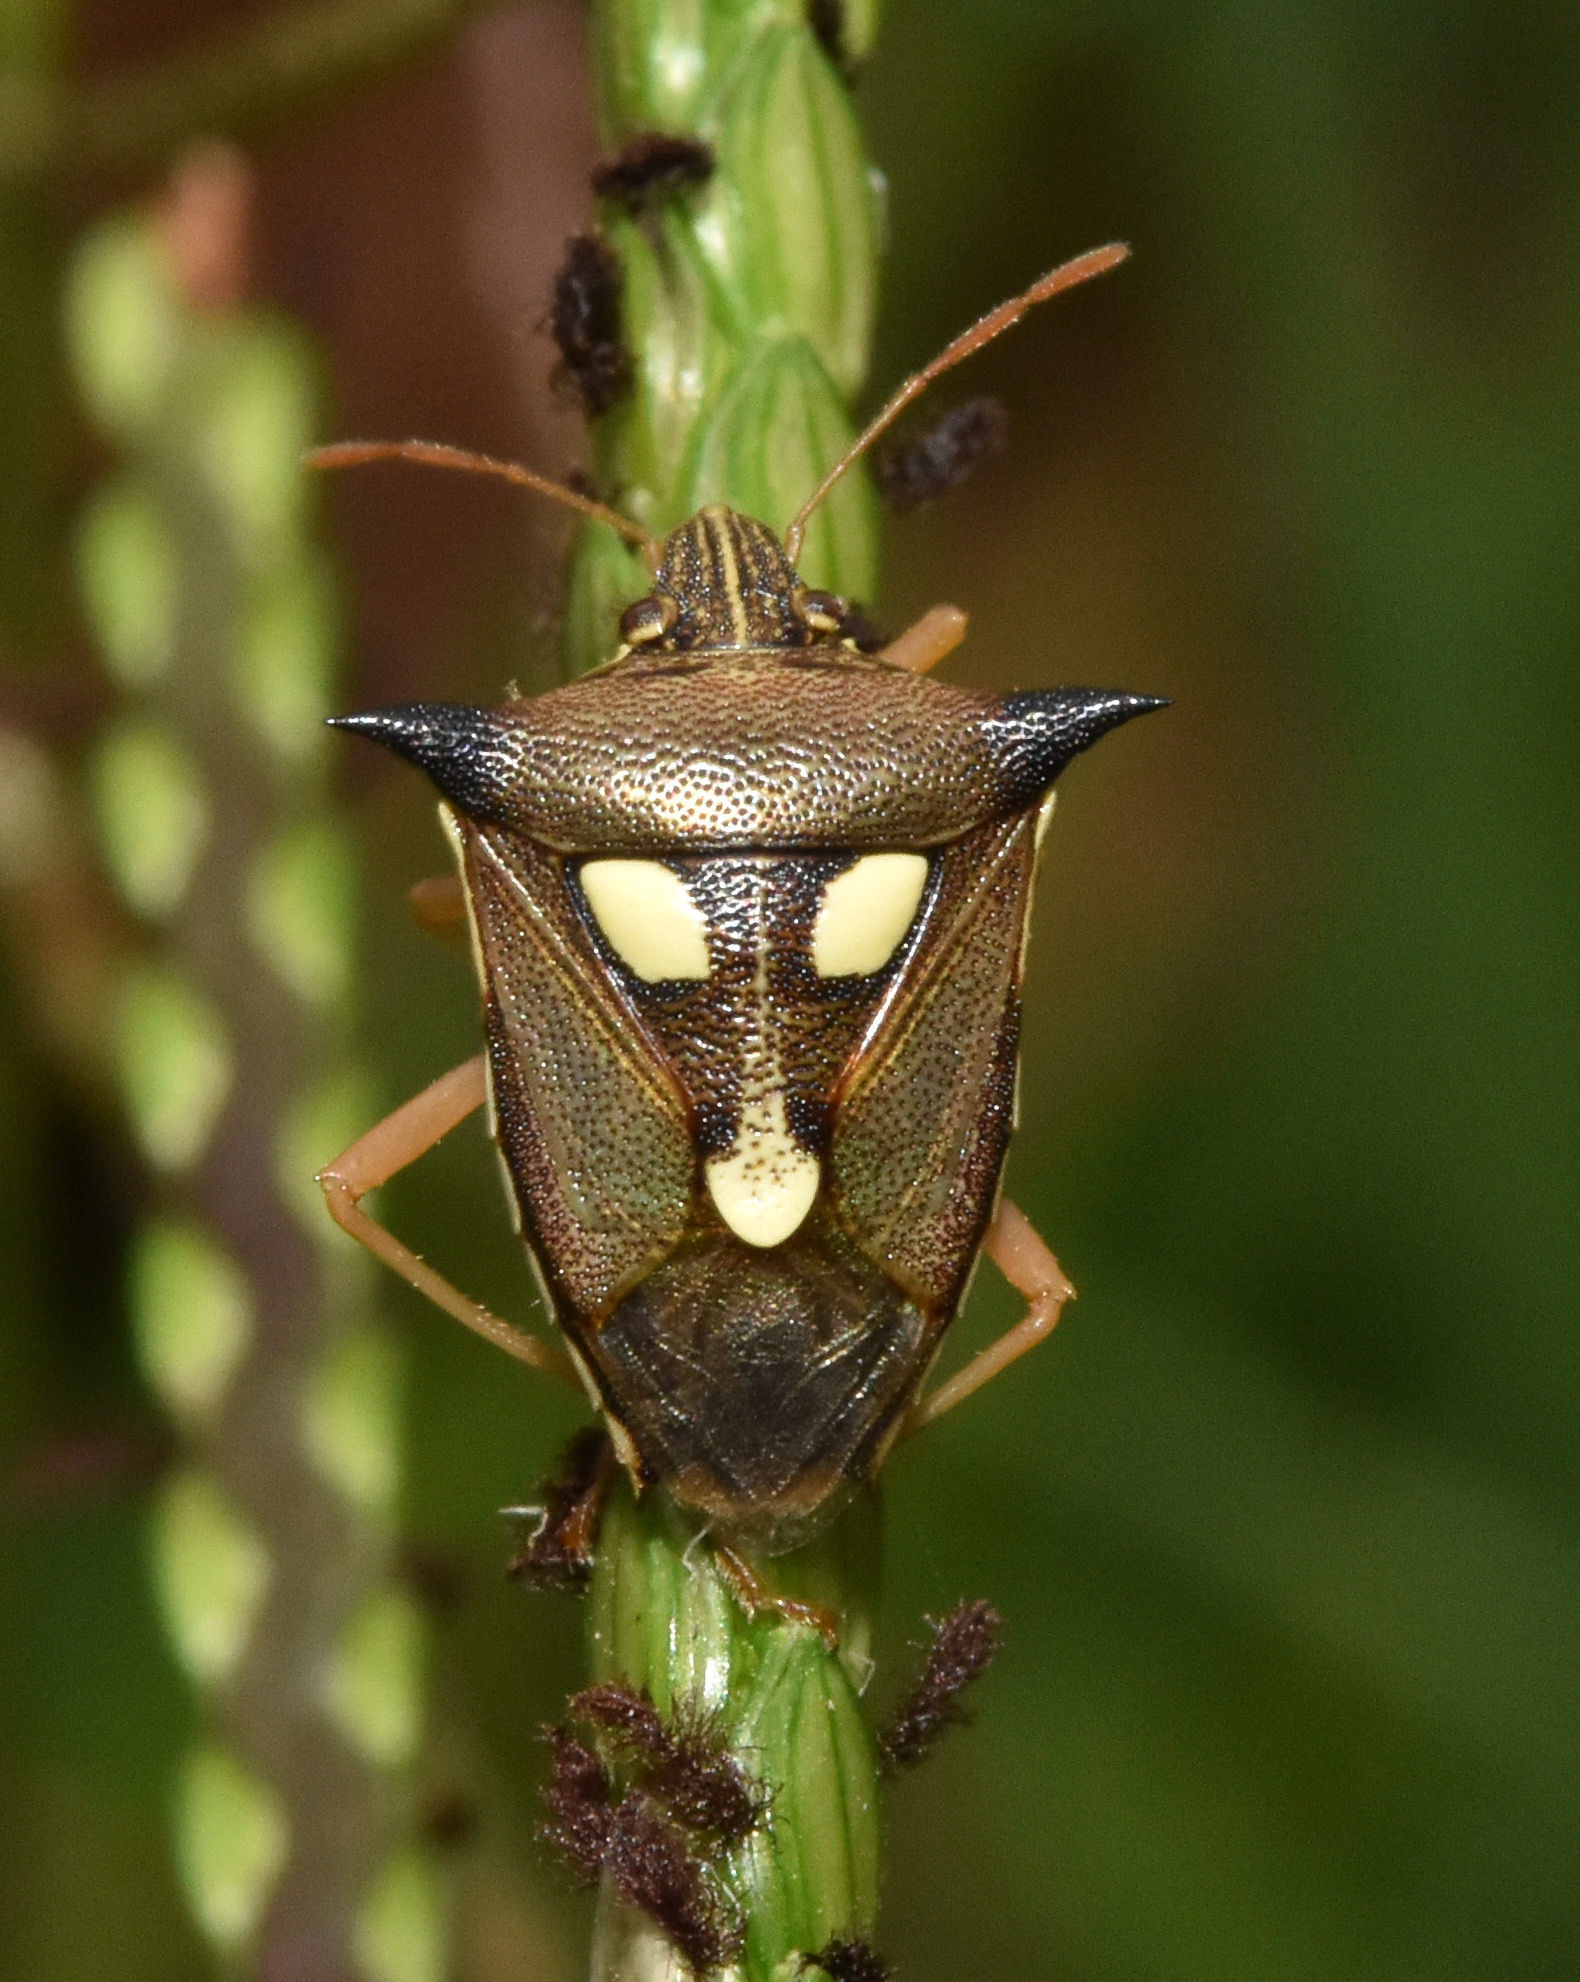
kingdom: Animalia
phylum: Arthropoda
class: Insecta
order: Hemiptera
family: Pentatomidae
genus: Aspavia
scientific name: Aspavia
